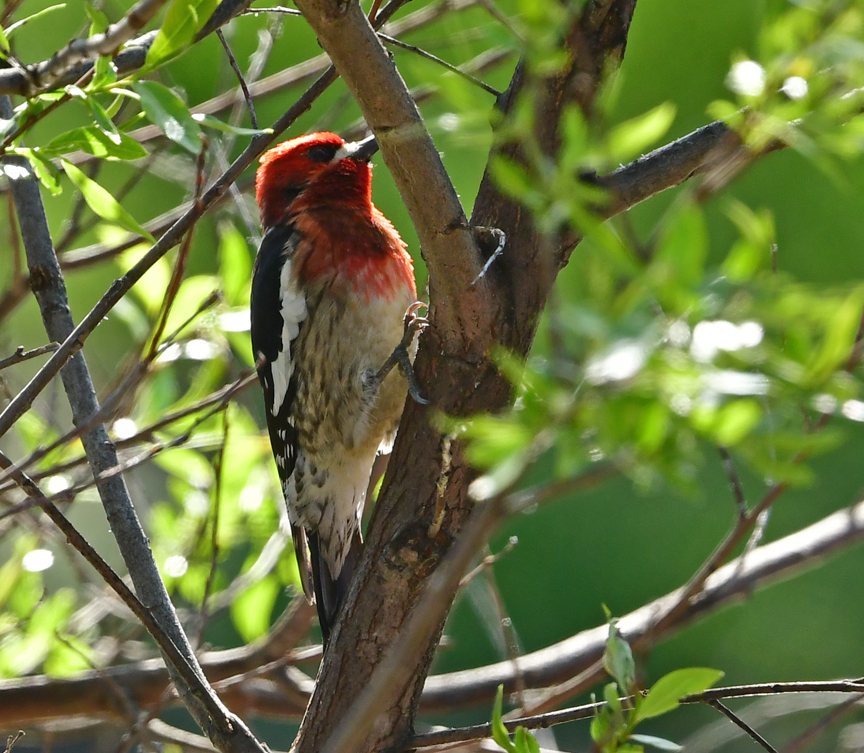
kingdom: Animalia
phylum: Chordata
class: Aves
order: Piciformes
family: Picidae
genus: Sphyrapicus
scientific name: Sphyrapicus ruber
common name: Red-breasted sapsucker
